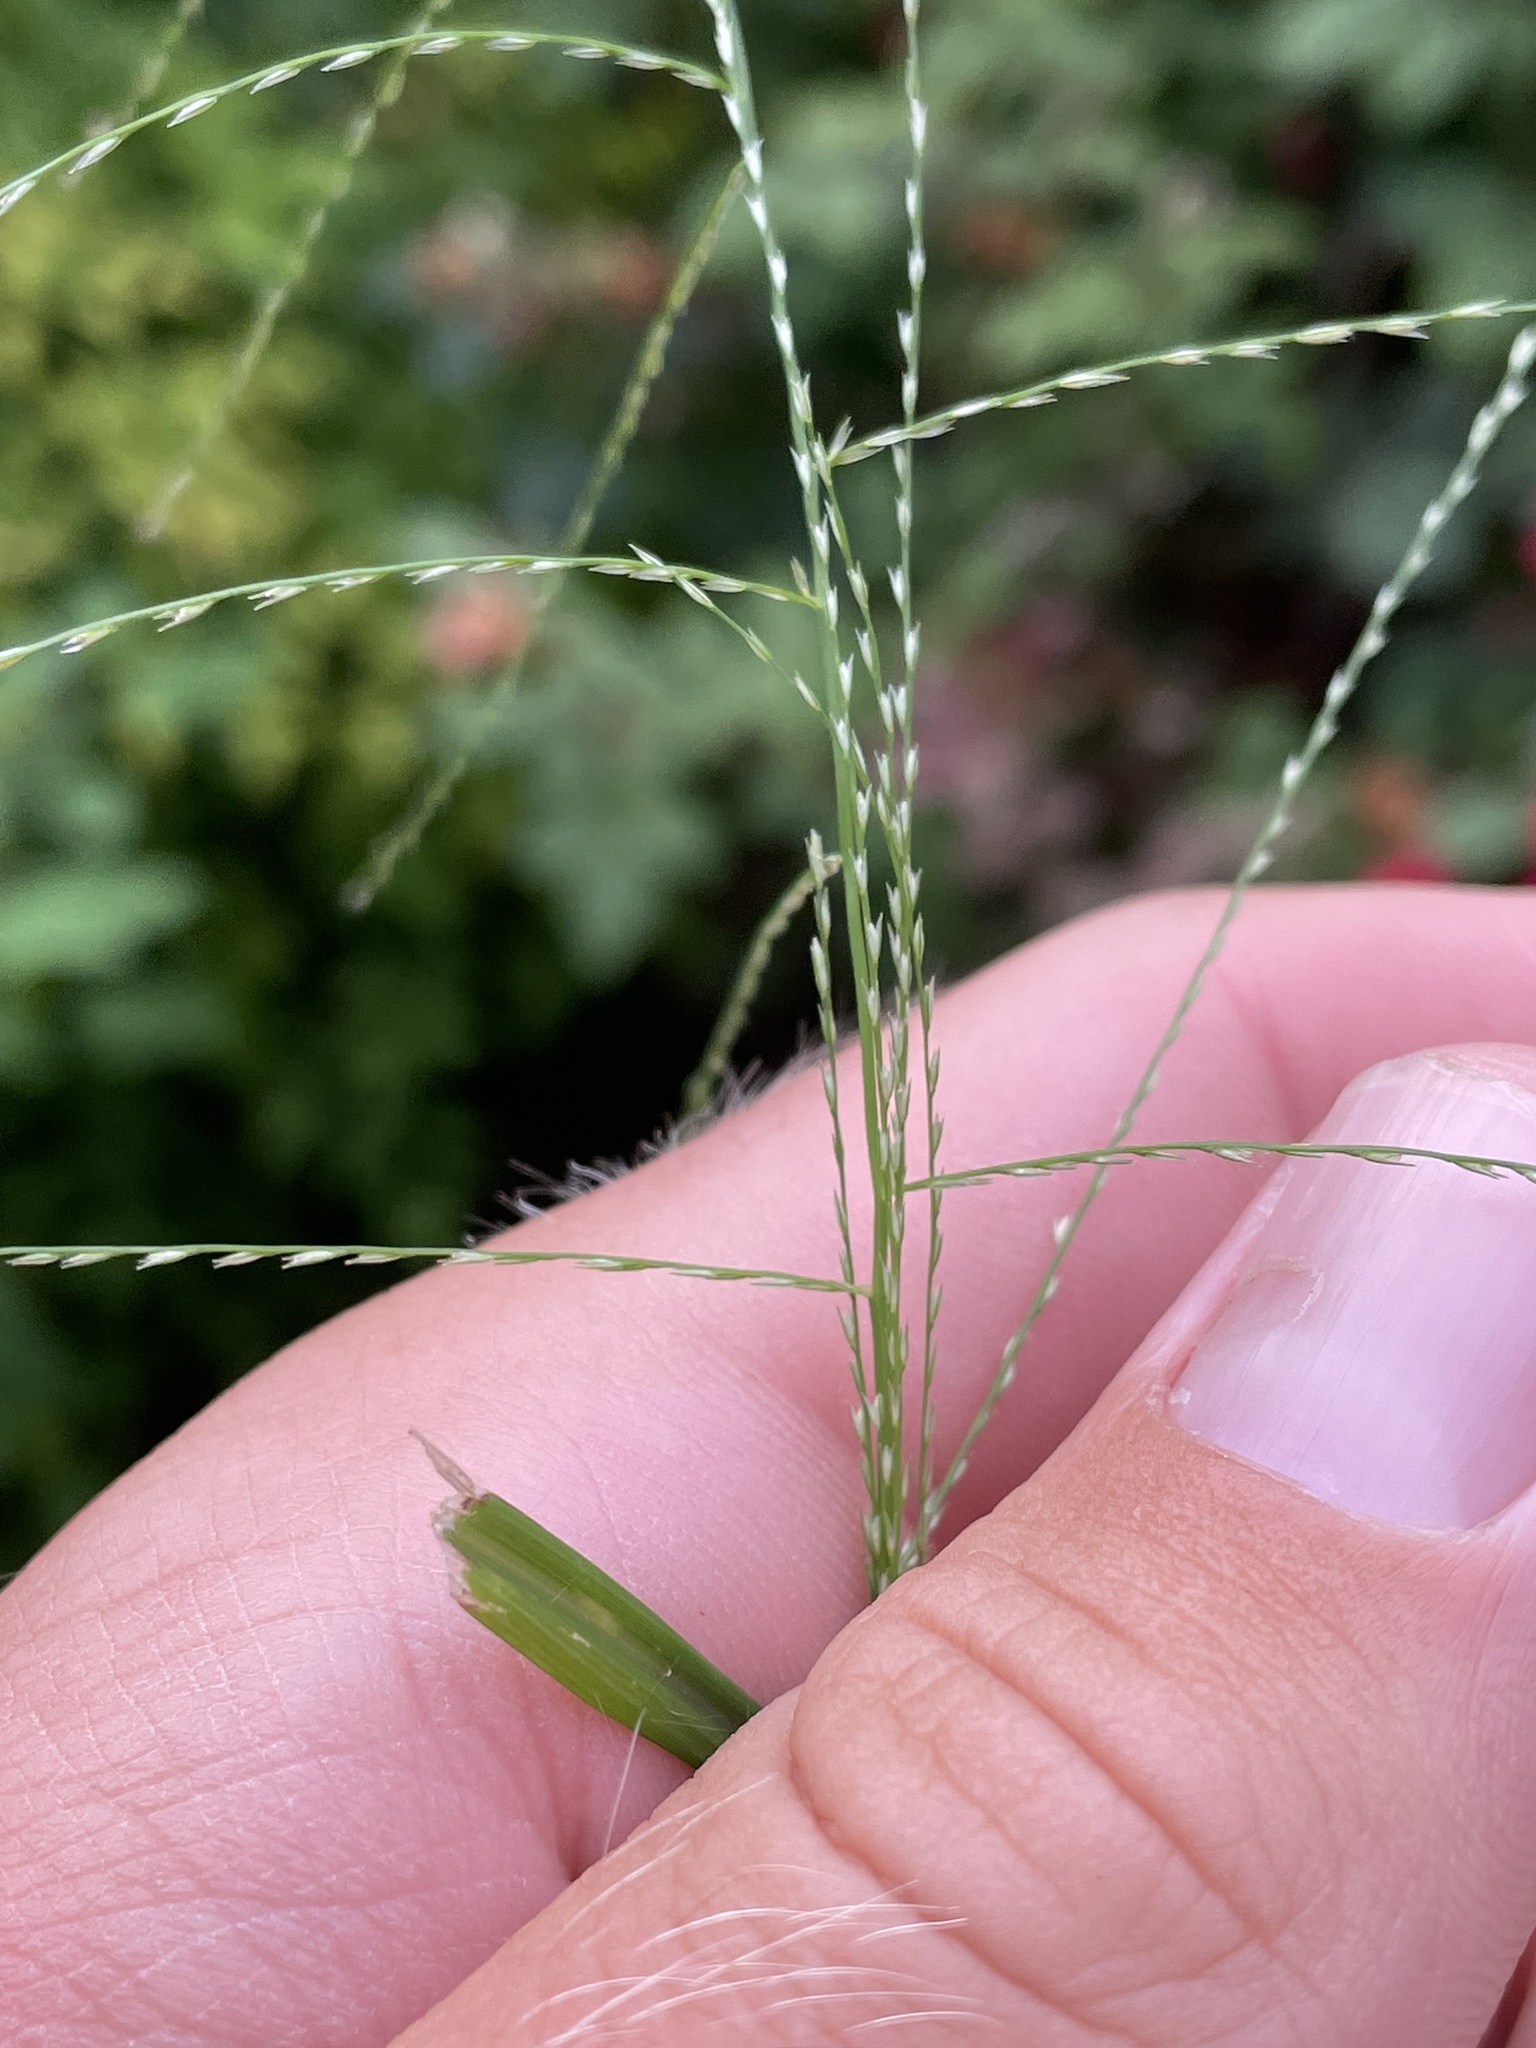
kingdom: Plantae
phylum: Tracheophyta
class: Liliopsida
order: Poales
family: Poaceae
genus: Leptochloa
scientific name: Leptochloa mucronata
